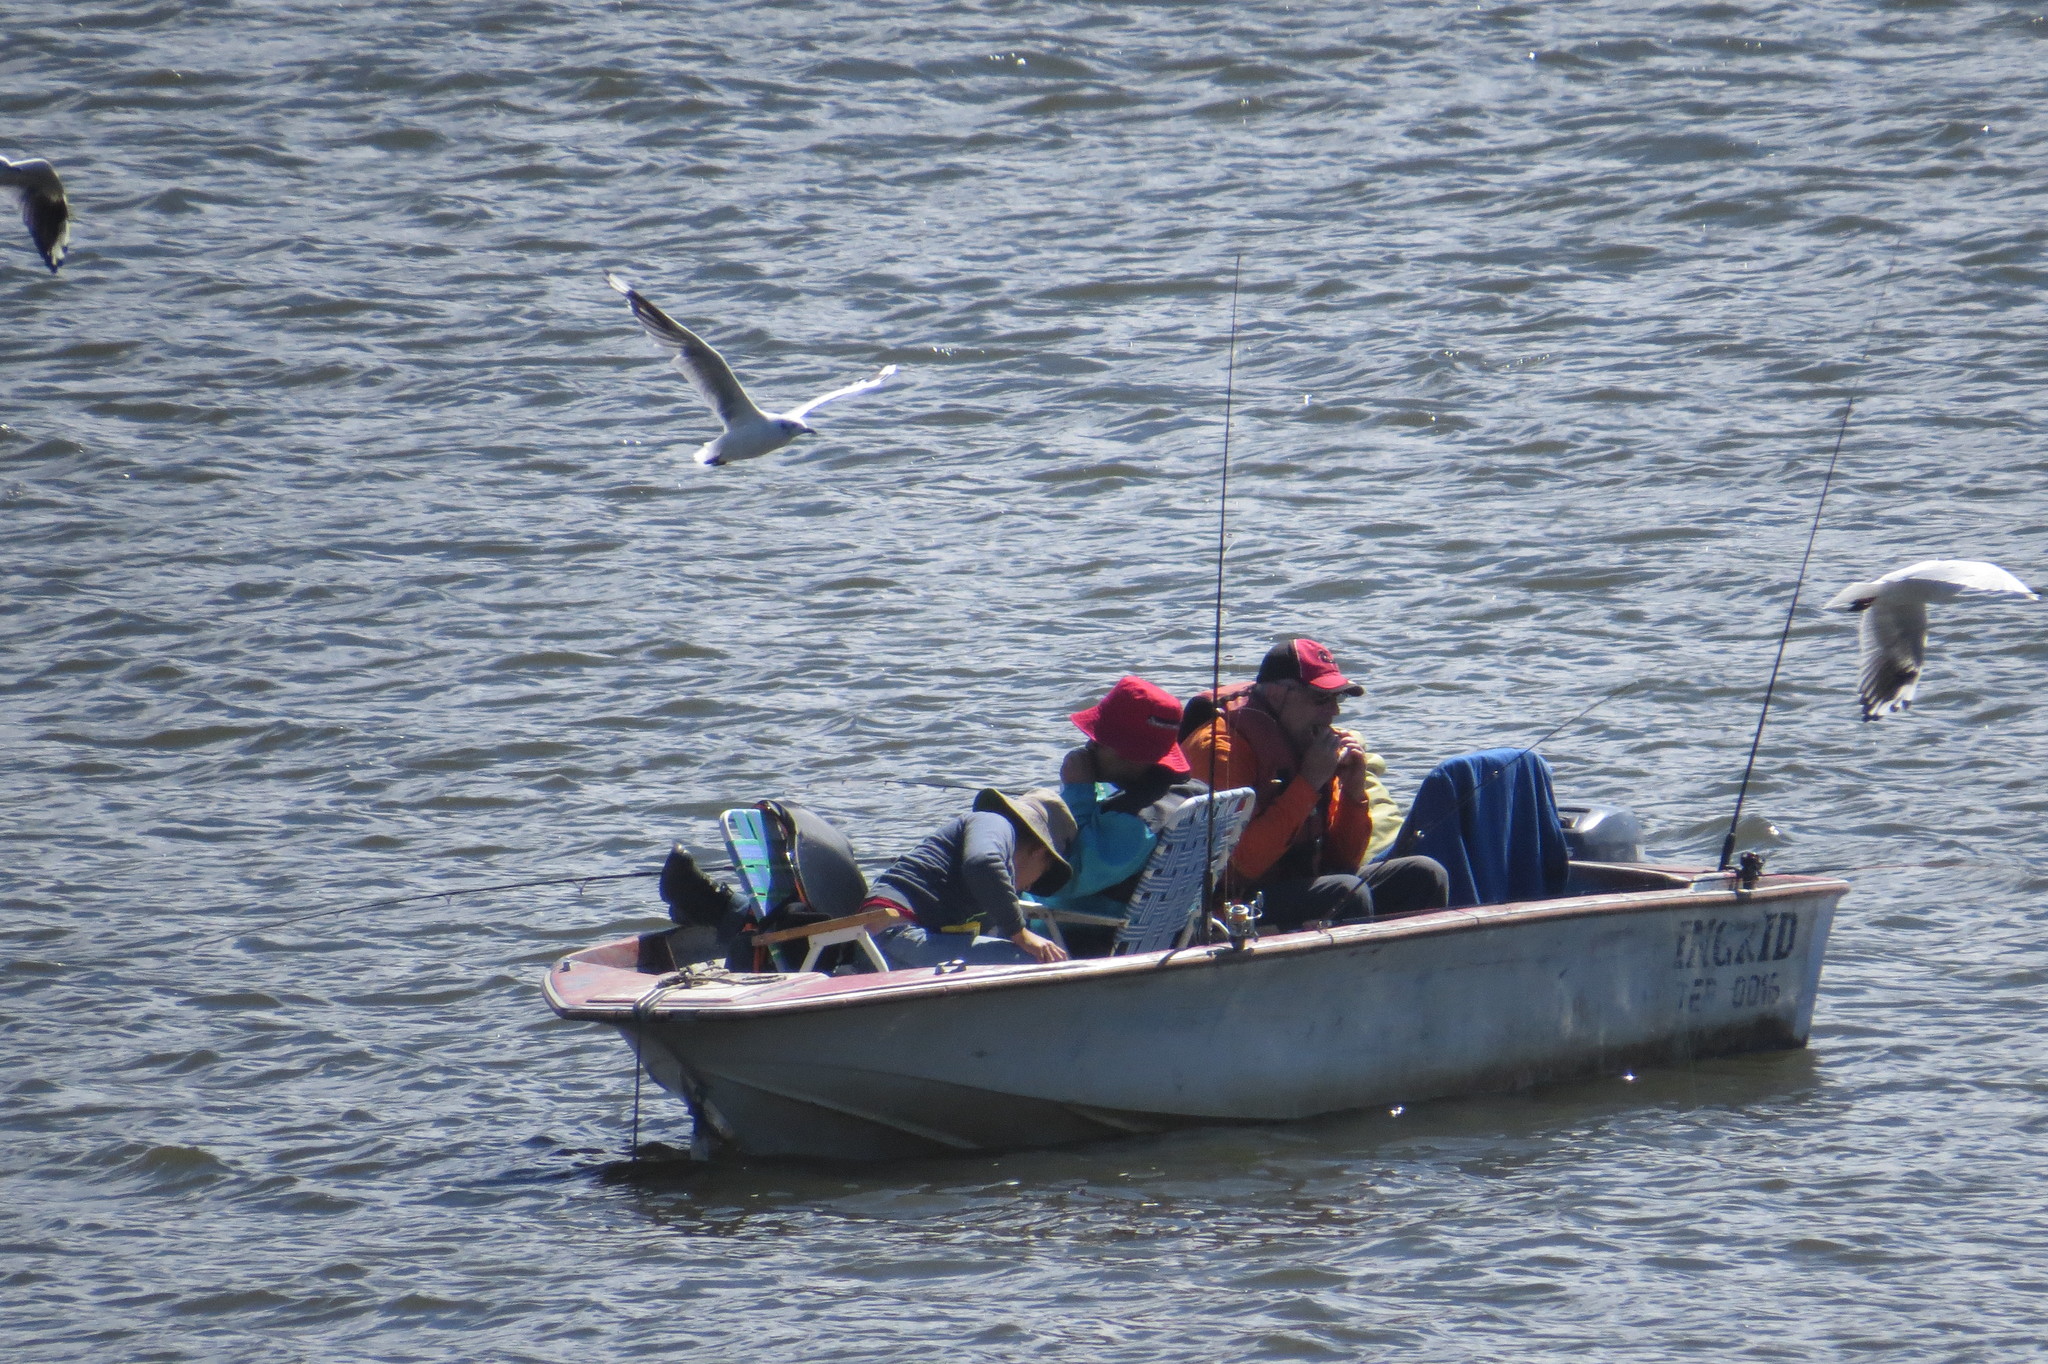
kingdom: Animalia
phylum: Chordata
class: Aves
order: Charadriiformes
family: Laridae
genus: Chroicocephalus
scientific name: Chroicocephalus serranus
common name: Andean gull
